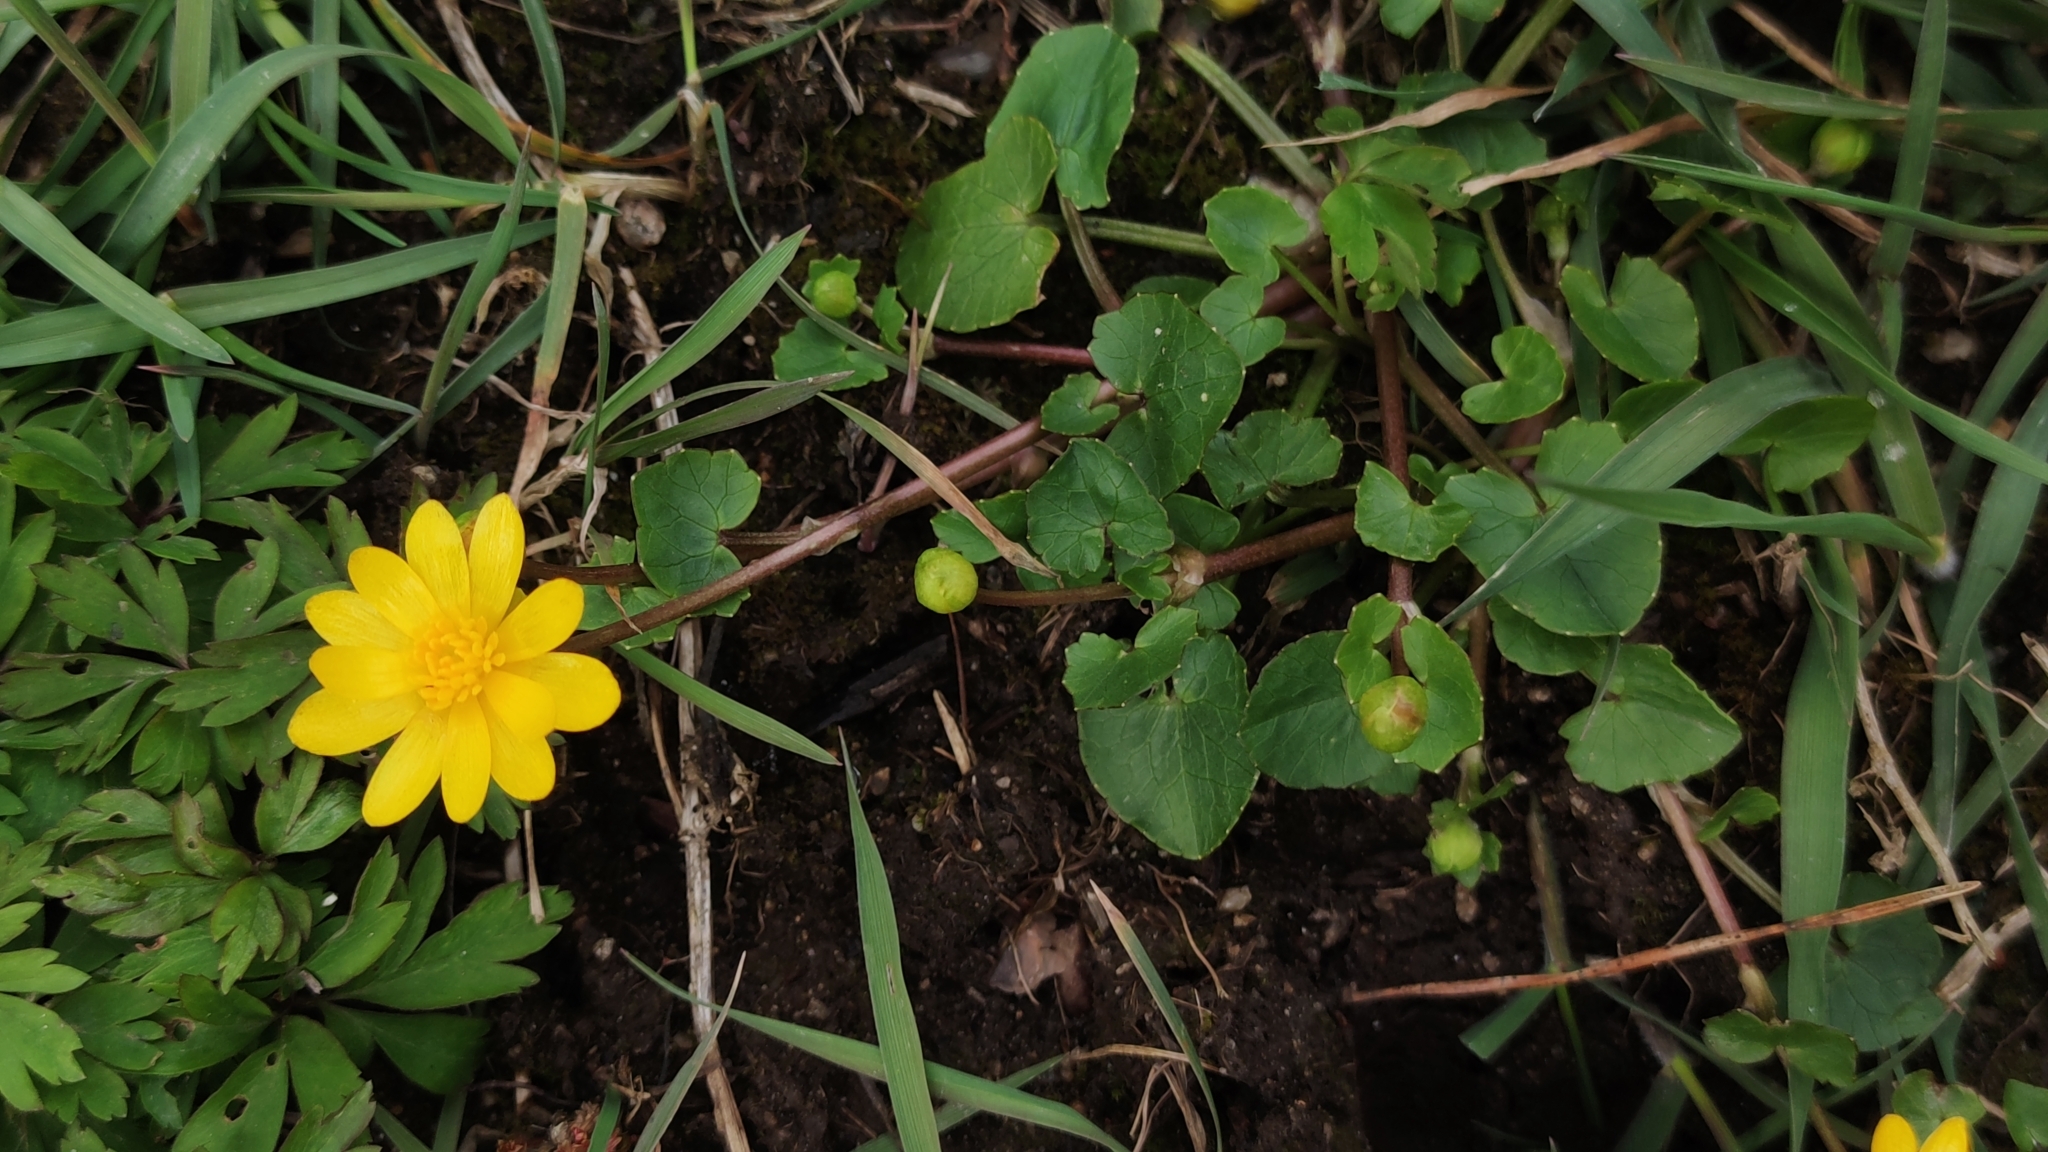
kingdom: Plantae
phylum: Tracheophyta
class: Magnoliopsida
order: Ranunculales
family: Ranunculaceae
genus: Ficaria
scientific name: Ficaria verna
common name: Lesser celandine
